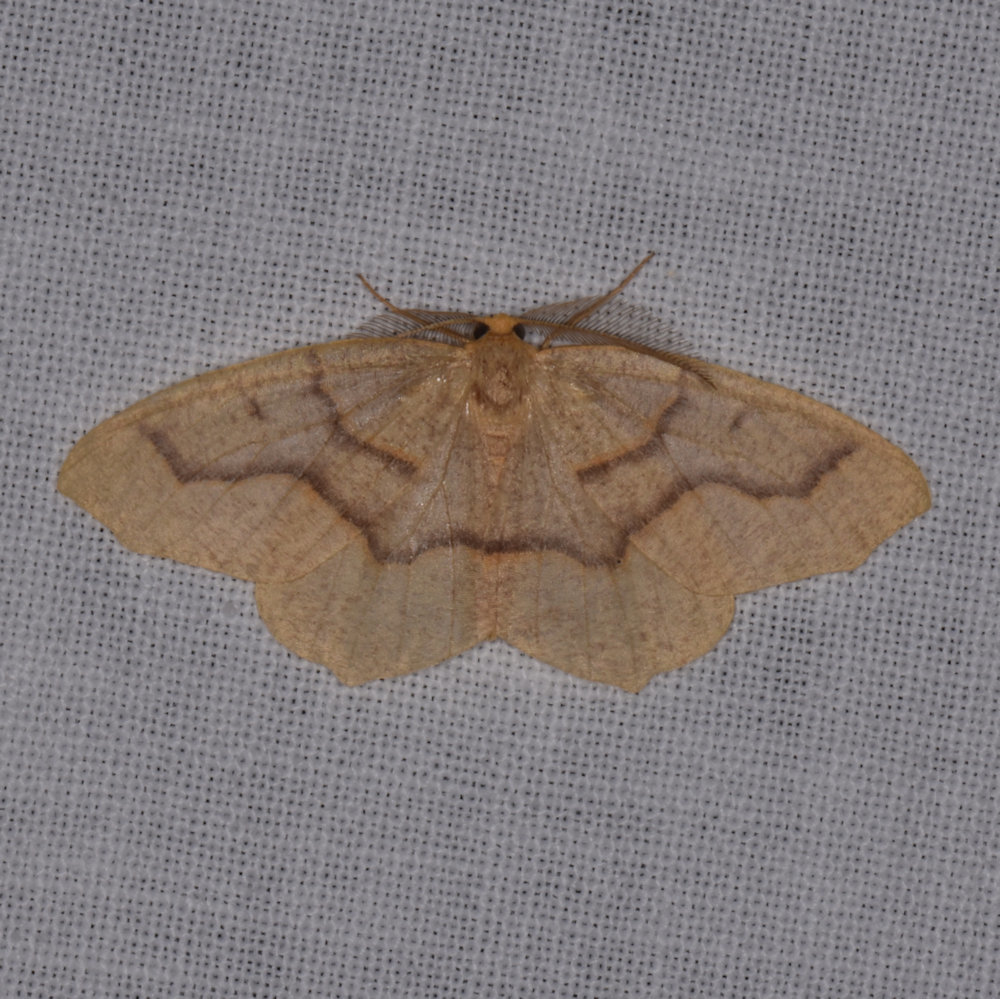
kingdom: Animalia
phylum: Arthropoda
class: Insecta
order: Lepidoptera
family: Geometridae
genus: Lambdina
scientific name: Lambdina fiscellaria
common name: Hemlock looper
